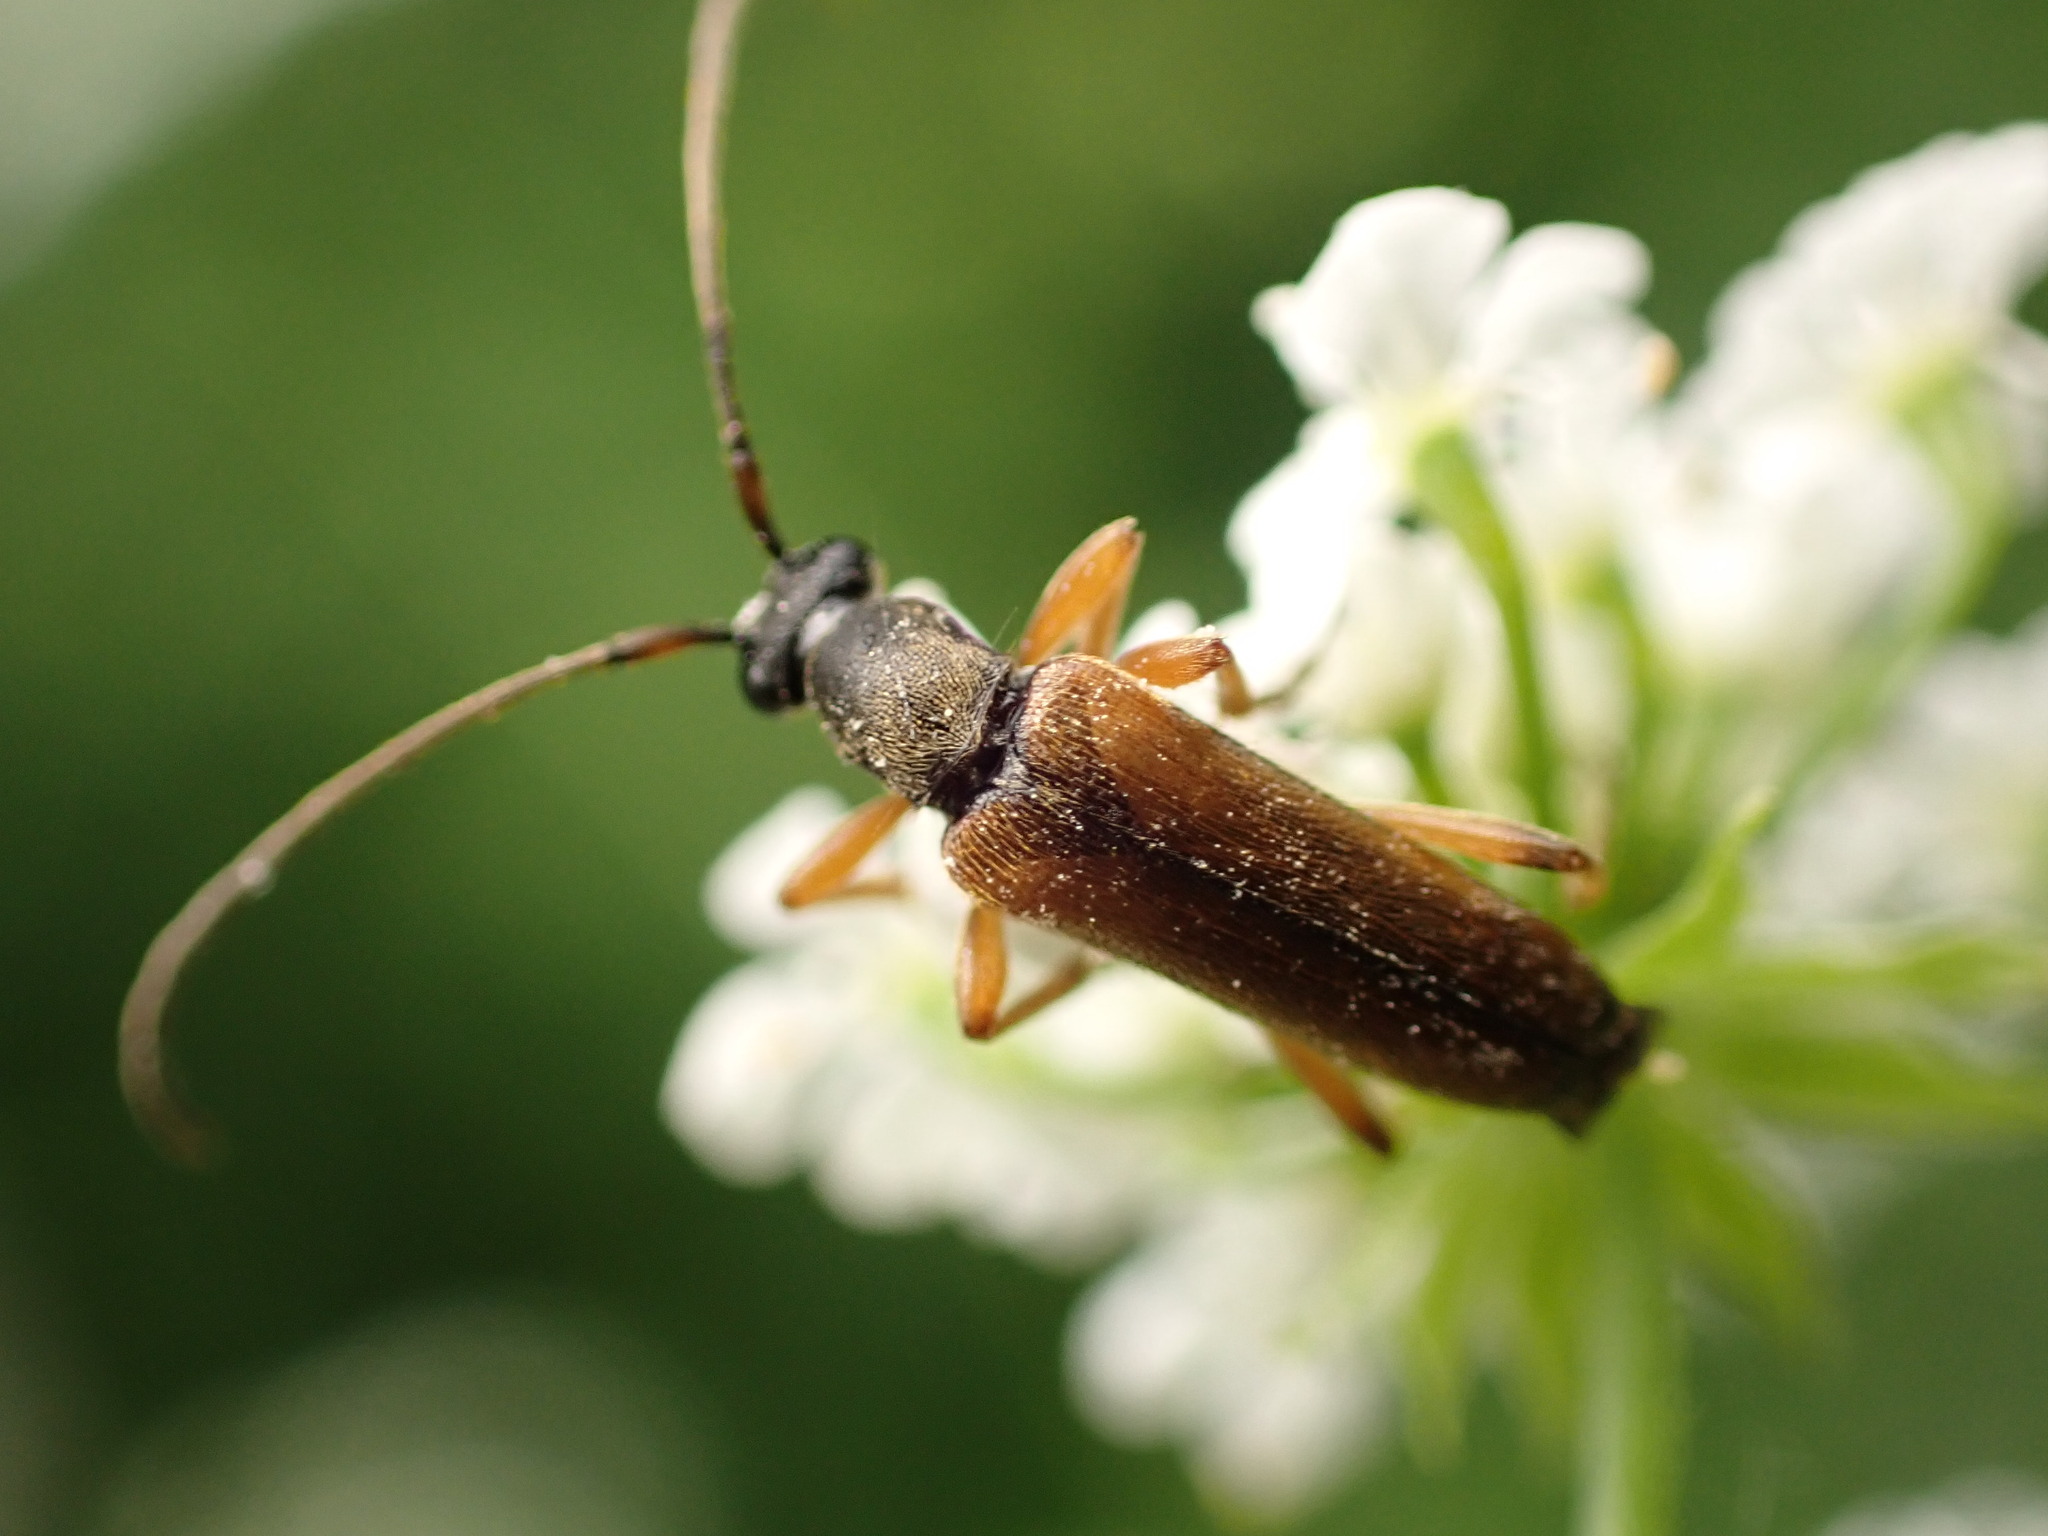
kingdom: Animalia
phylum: Arthropoda
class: Insecta
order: Coleoptera
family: Cerambycidae
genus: Alosterna
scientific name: Alosterna tabacicolor
